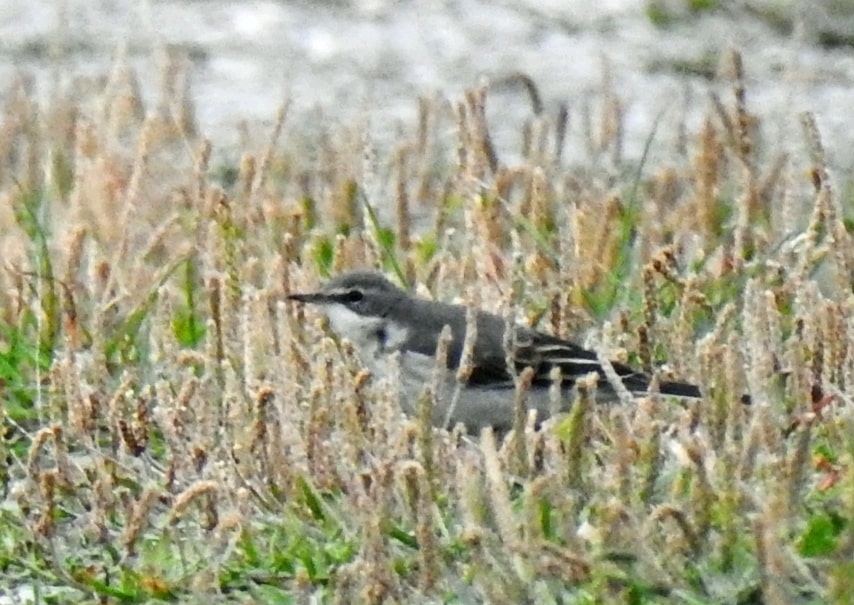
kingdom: Animalia
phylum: Chordata
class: Aves
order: Passeriformes
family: Motacillidae
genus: Motacilla
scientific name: Motacilla tschutschensis
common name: Eastern yellow wagtail
